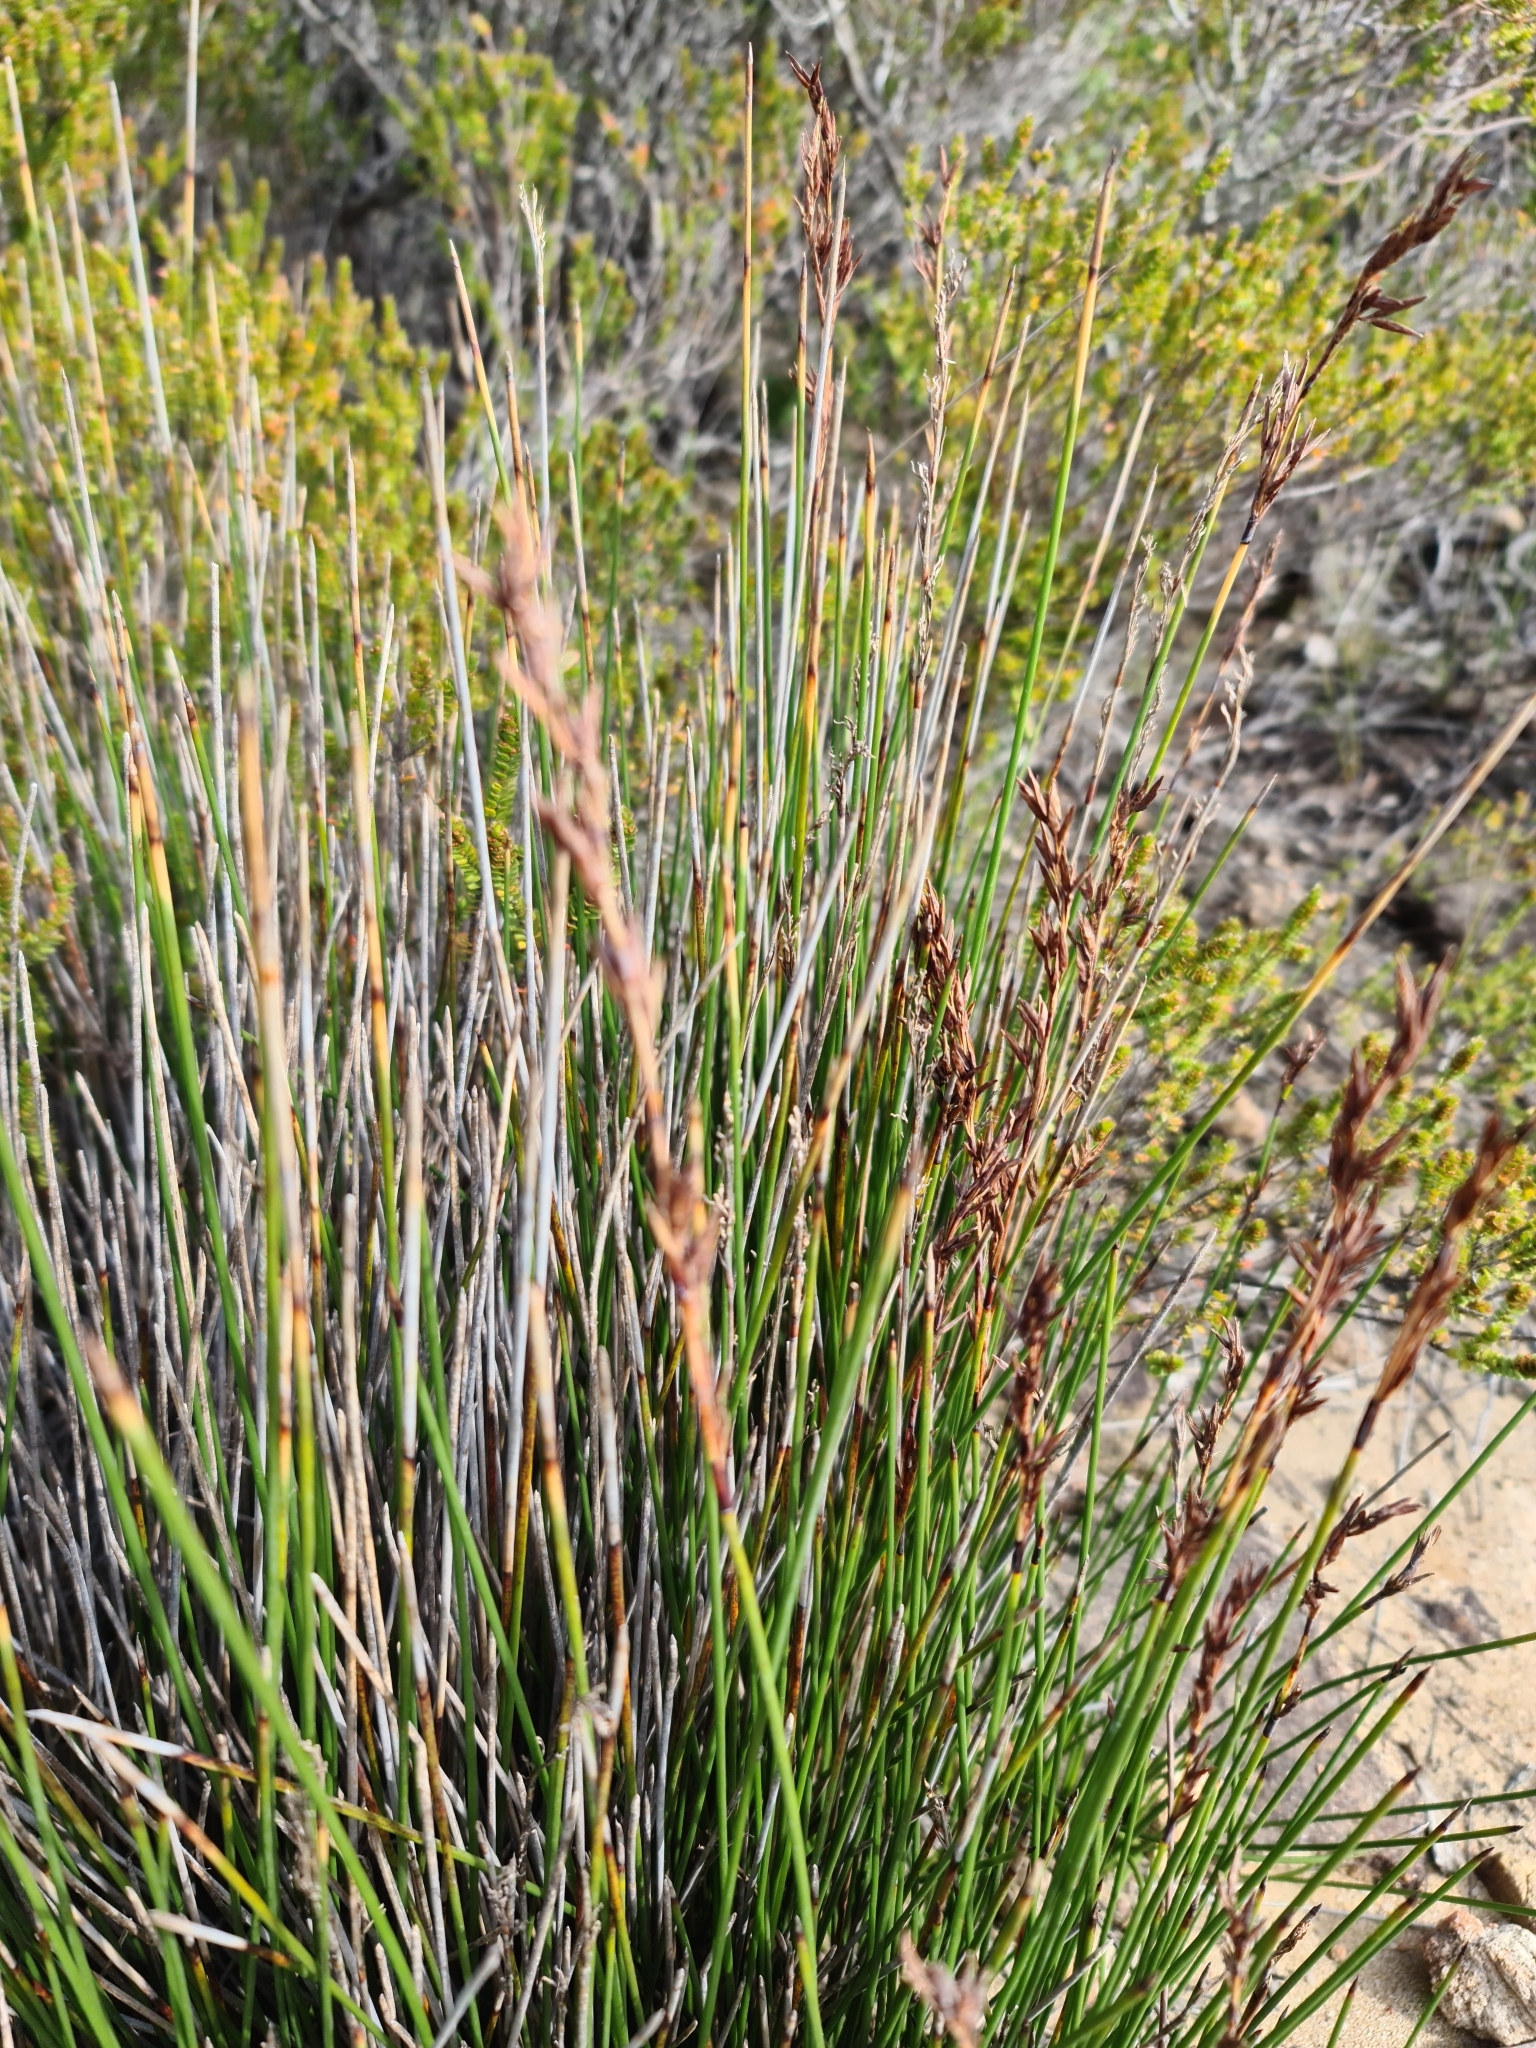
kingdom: Plantae
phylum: Tracheophyta
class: Liliopsida
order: Poales
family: Cyperaceae
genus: Schoenus
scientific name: Schoenus brevifolius
